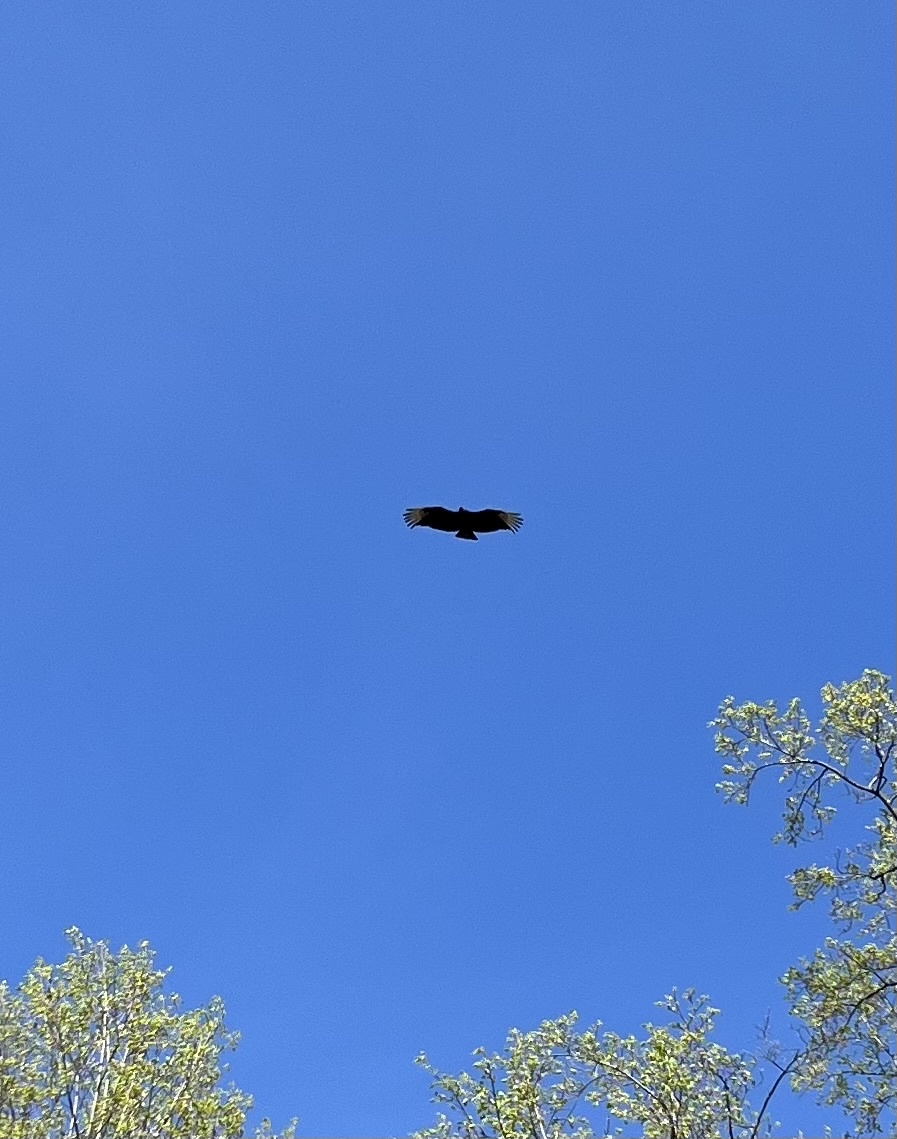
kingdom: Animalia
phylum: Chordata
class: Aves
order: Accipitriformes
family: Cathartidae
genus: Coragyps
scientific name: Coragyps atratus
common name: Black vulture
